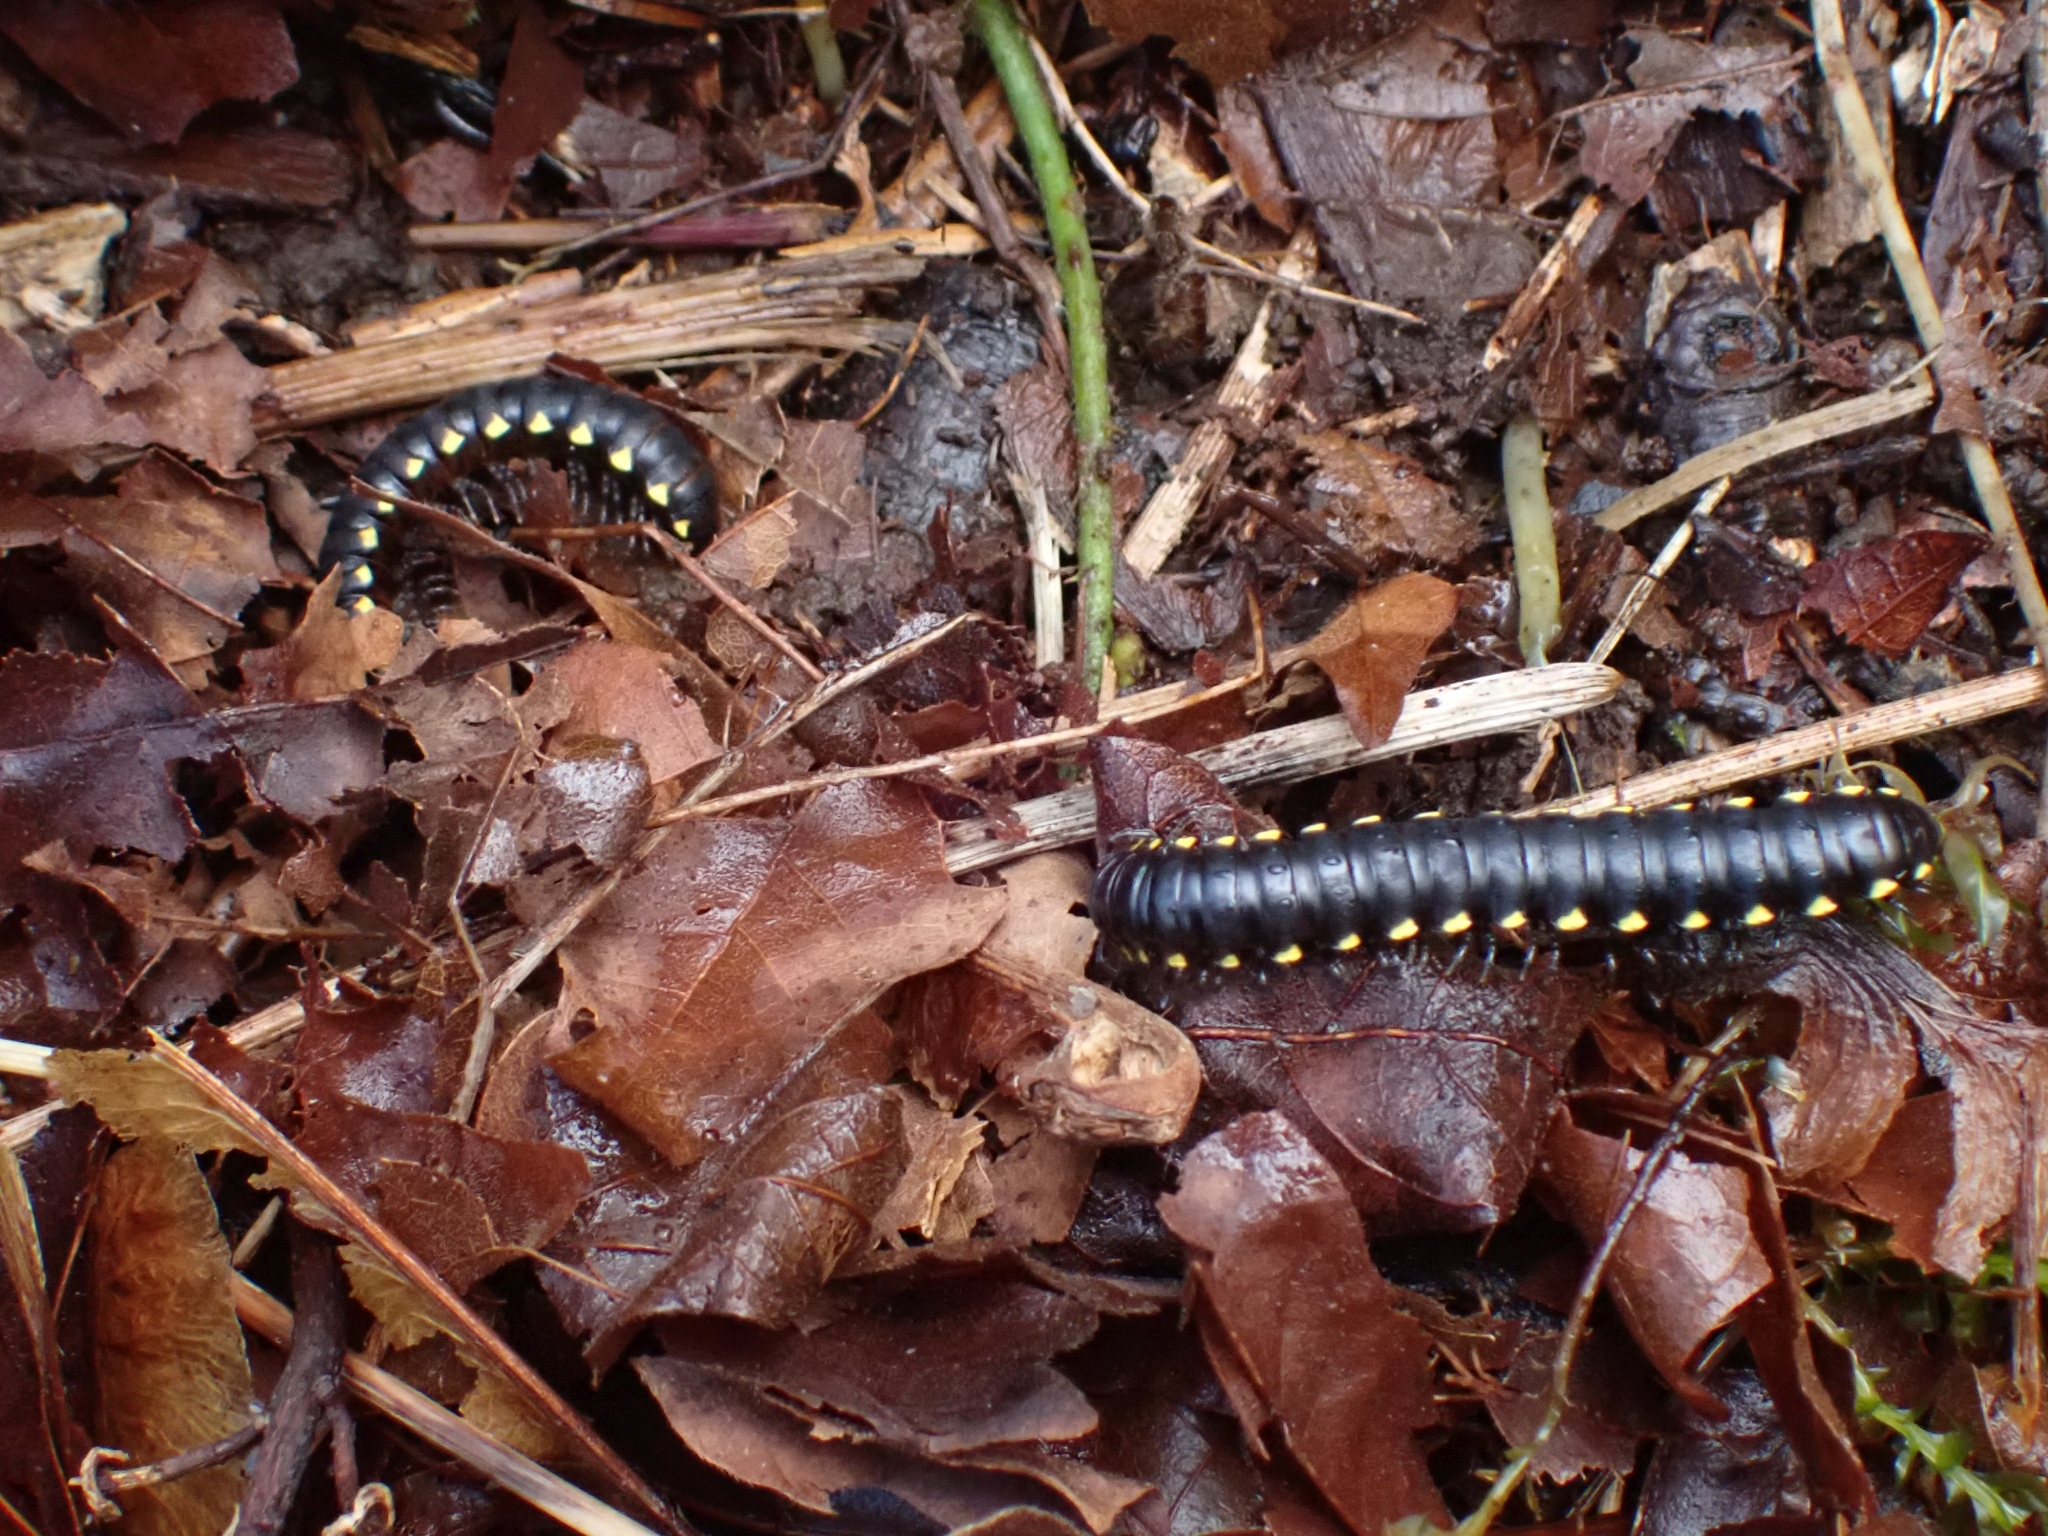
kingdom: Animalia
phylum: Arthropoda
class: Diplopoda
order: Polydesmida
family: Xystodesmidae
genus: Harpaphe
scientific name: Harpaphe haydeniana
